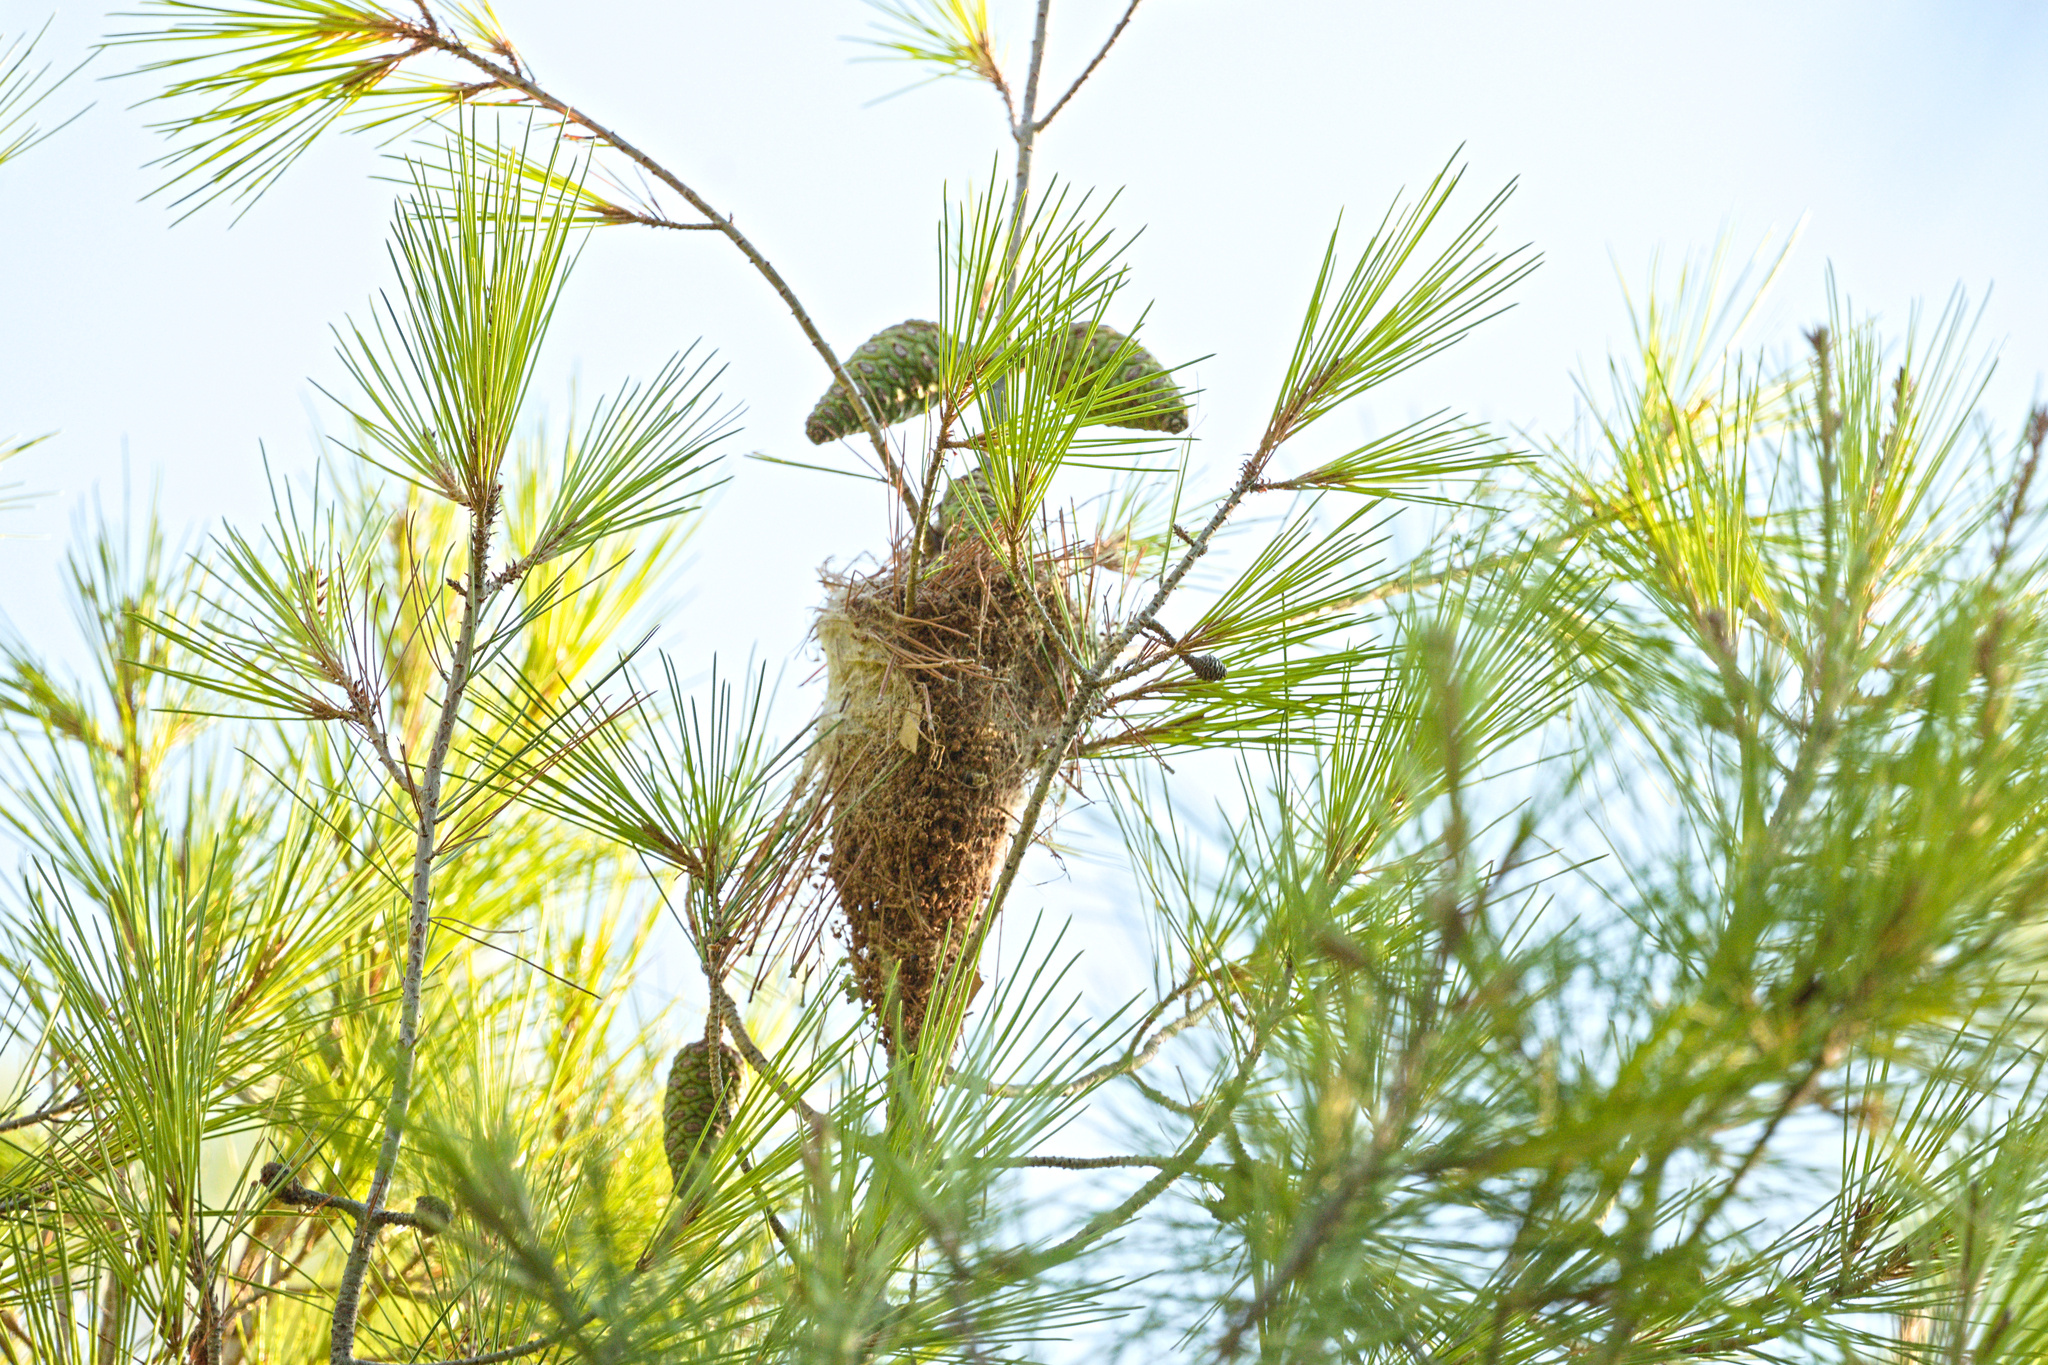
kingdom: Animalia
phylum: Arthropoda
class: Insecta
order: Lepidoptera
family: Notodontidae
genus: Thaumetopoea
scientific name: Thaumetopoea pityocampa
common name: Pine processionary
